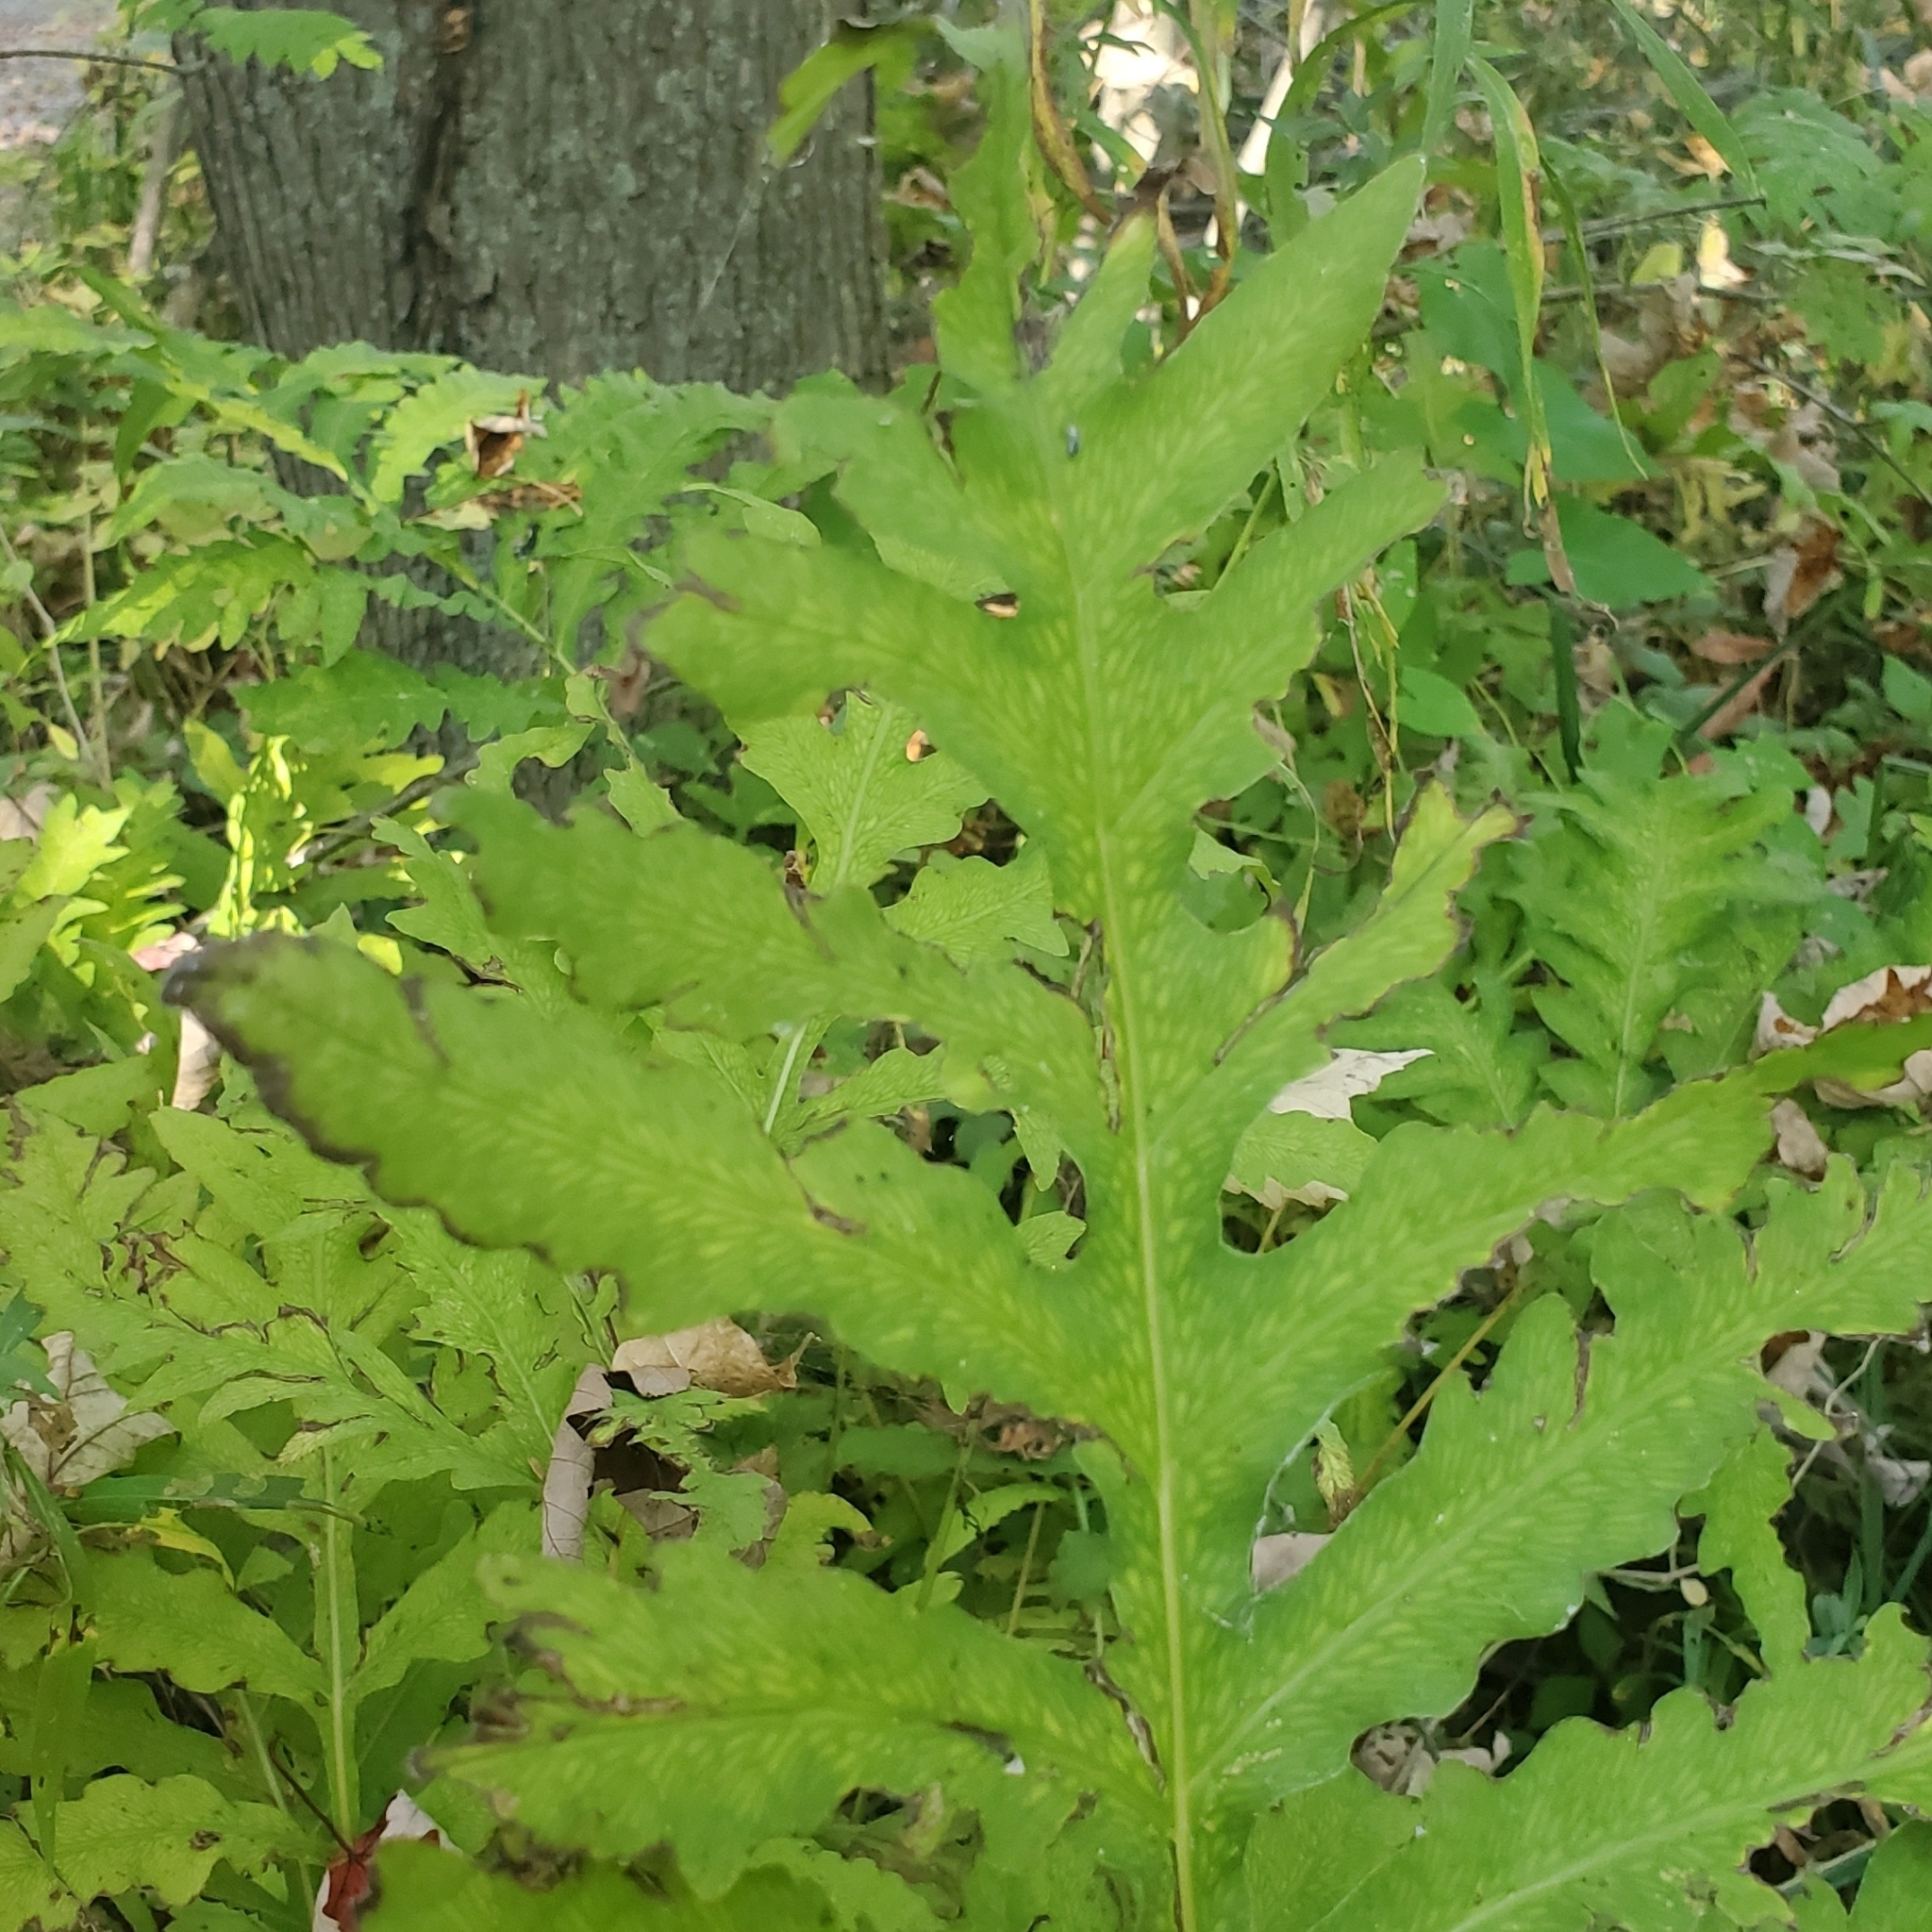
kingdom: Plantae
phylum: Tracheophyta
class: Polypodiopsida
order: Polypodiales
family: Onocleaceae
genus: Onoclea
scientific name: Onoclea sensibilis
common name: Sensitive fern
